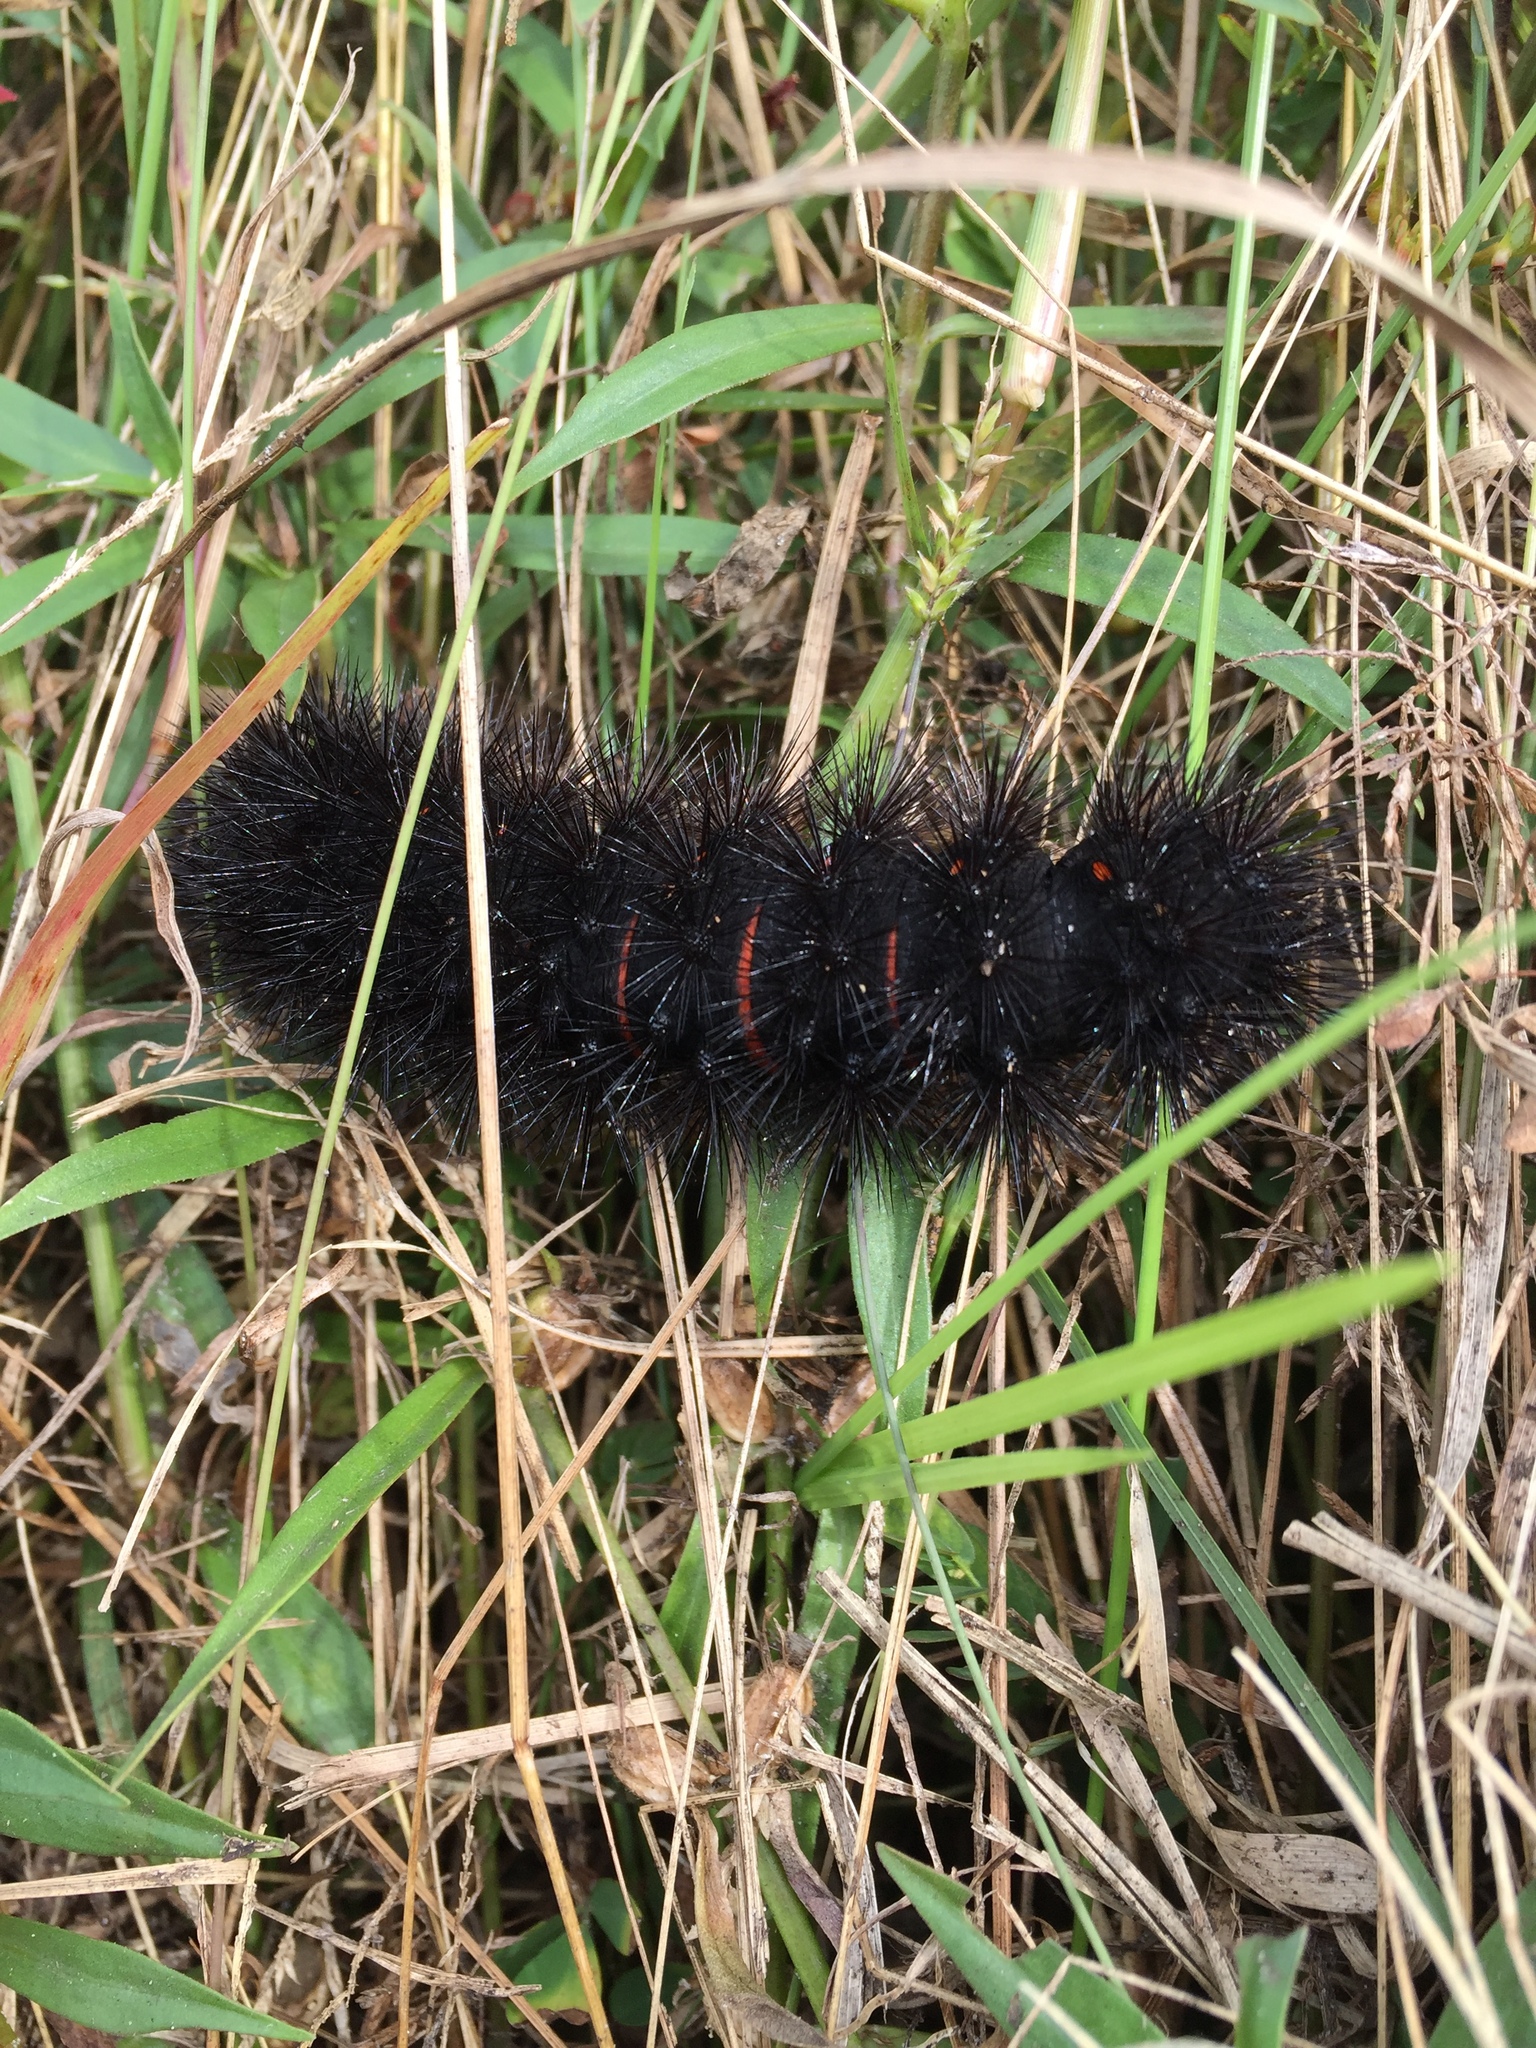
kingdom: Animalia
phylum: Arthropoda
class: Insecta
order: Lepidoptera
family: Erebidae
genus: Hypercompe
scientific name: Hypercompe scribonia
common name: Giant leopard moth
